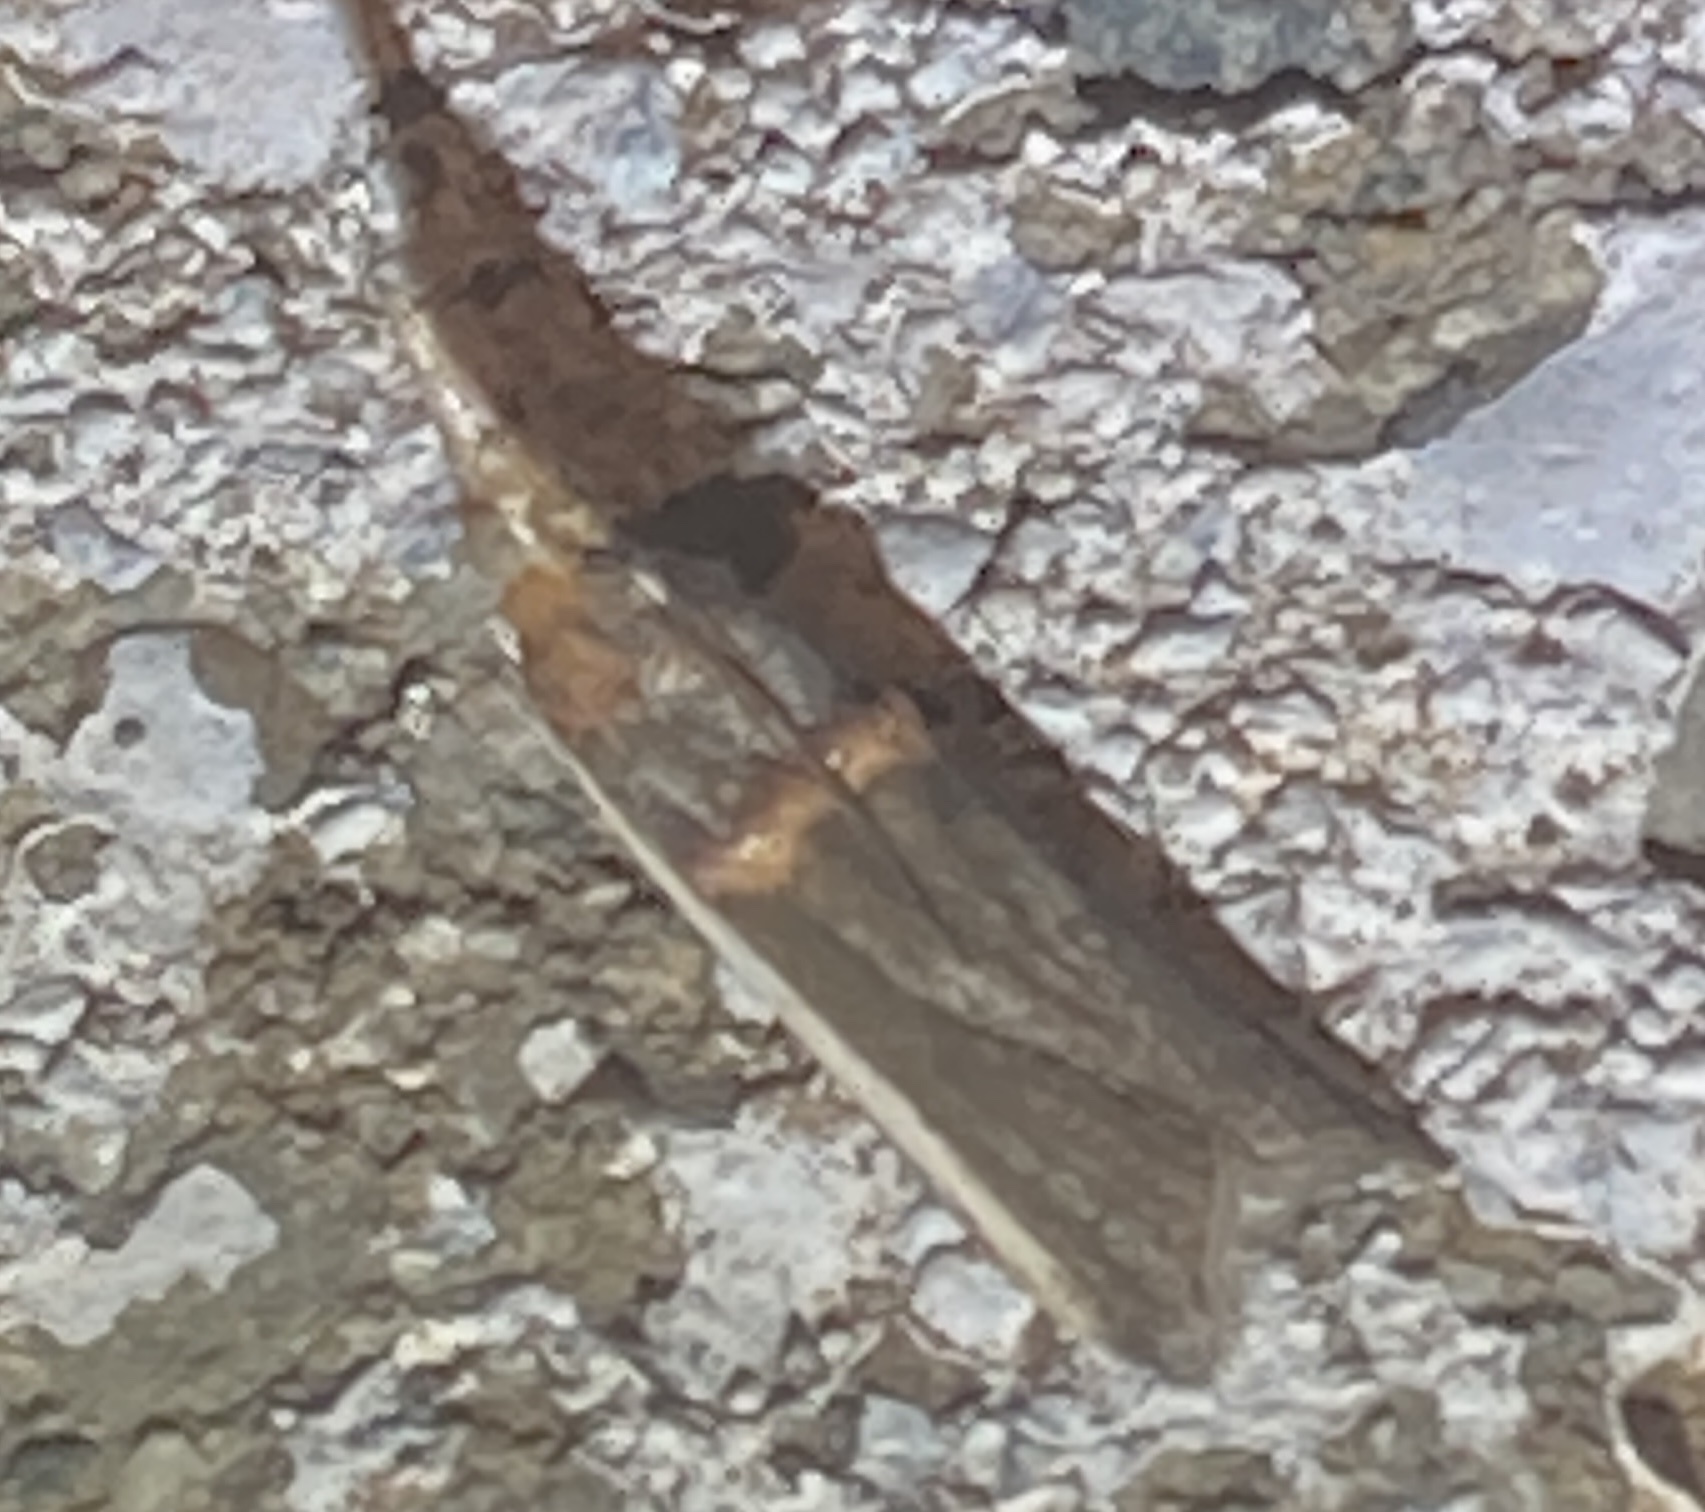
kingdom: Animalia
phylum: Arthropoda
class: Insecta
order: Lepidoptera
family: Pyralidae
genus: Etiella
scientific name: Etiella zinckenella
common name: Gold-banded etiella moth
